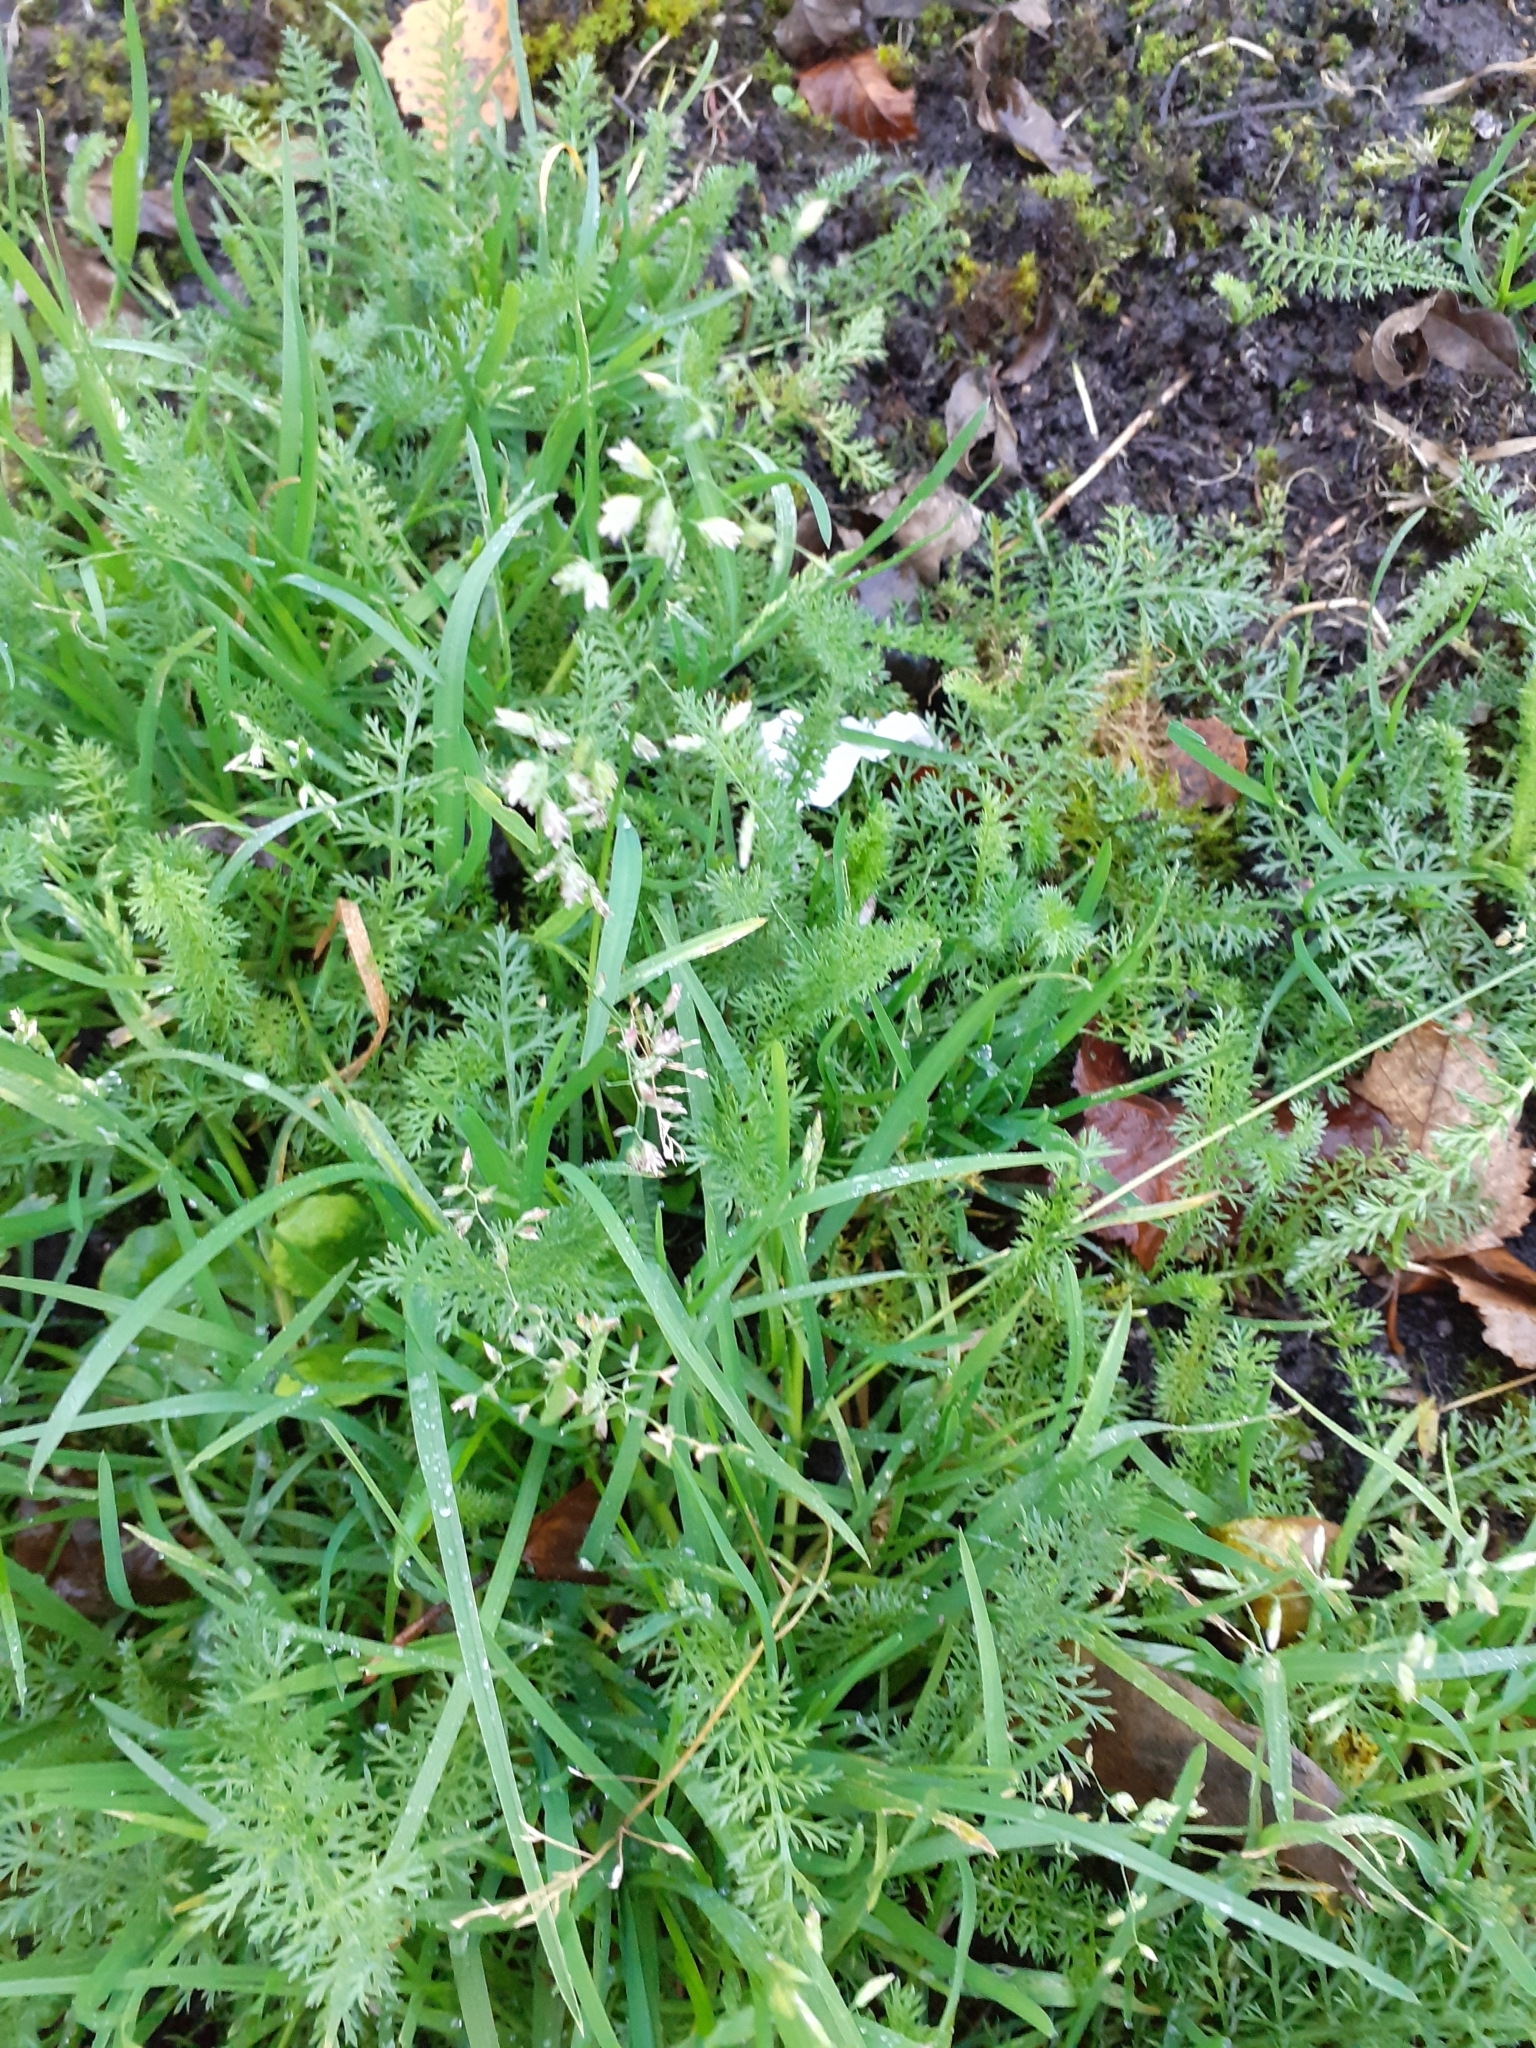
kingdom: Plantae
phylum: Tracheophyta
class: Liliopsida
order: Poales
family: Poaceae
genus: Poa
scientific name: Poa annua
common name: Annual bluegrass
